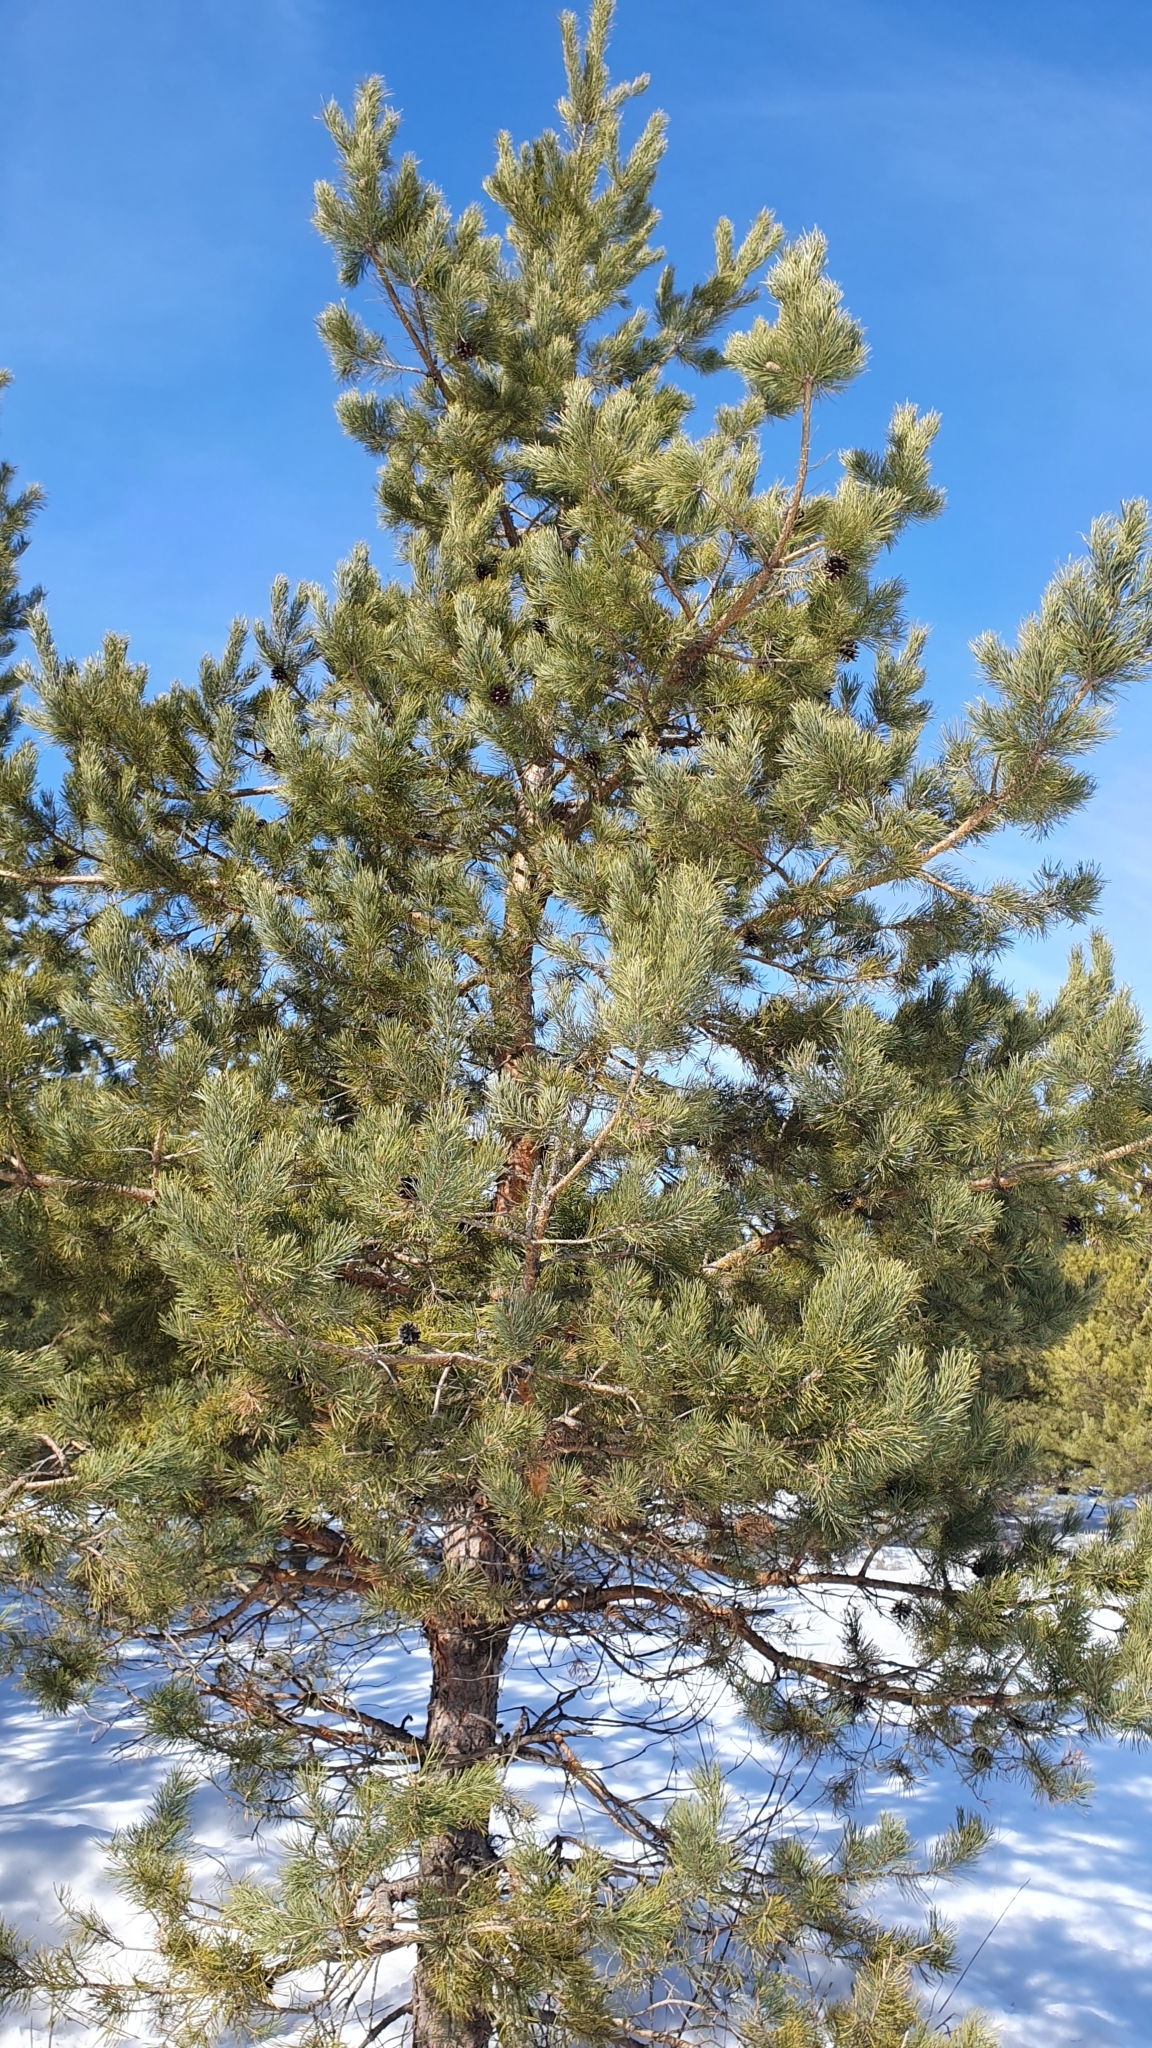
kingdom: Plantae
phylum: Tracheophyta
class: Pinopsida
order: Pinales
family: Pinaceae
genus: Pinus
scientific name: Pinus sylvestris
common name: Scots pine
